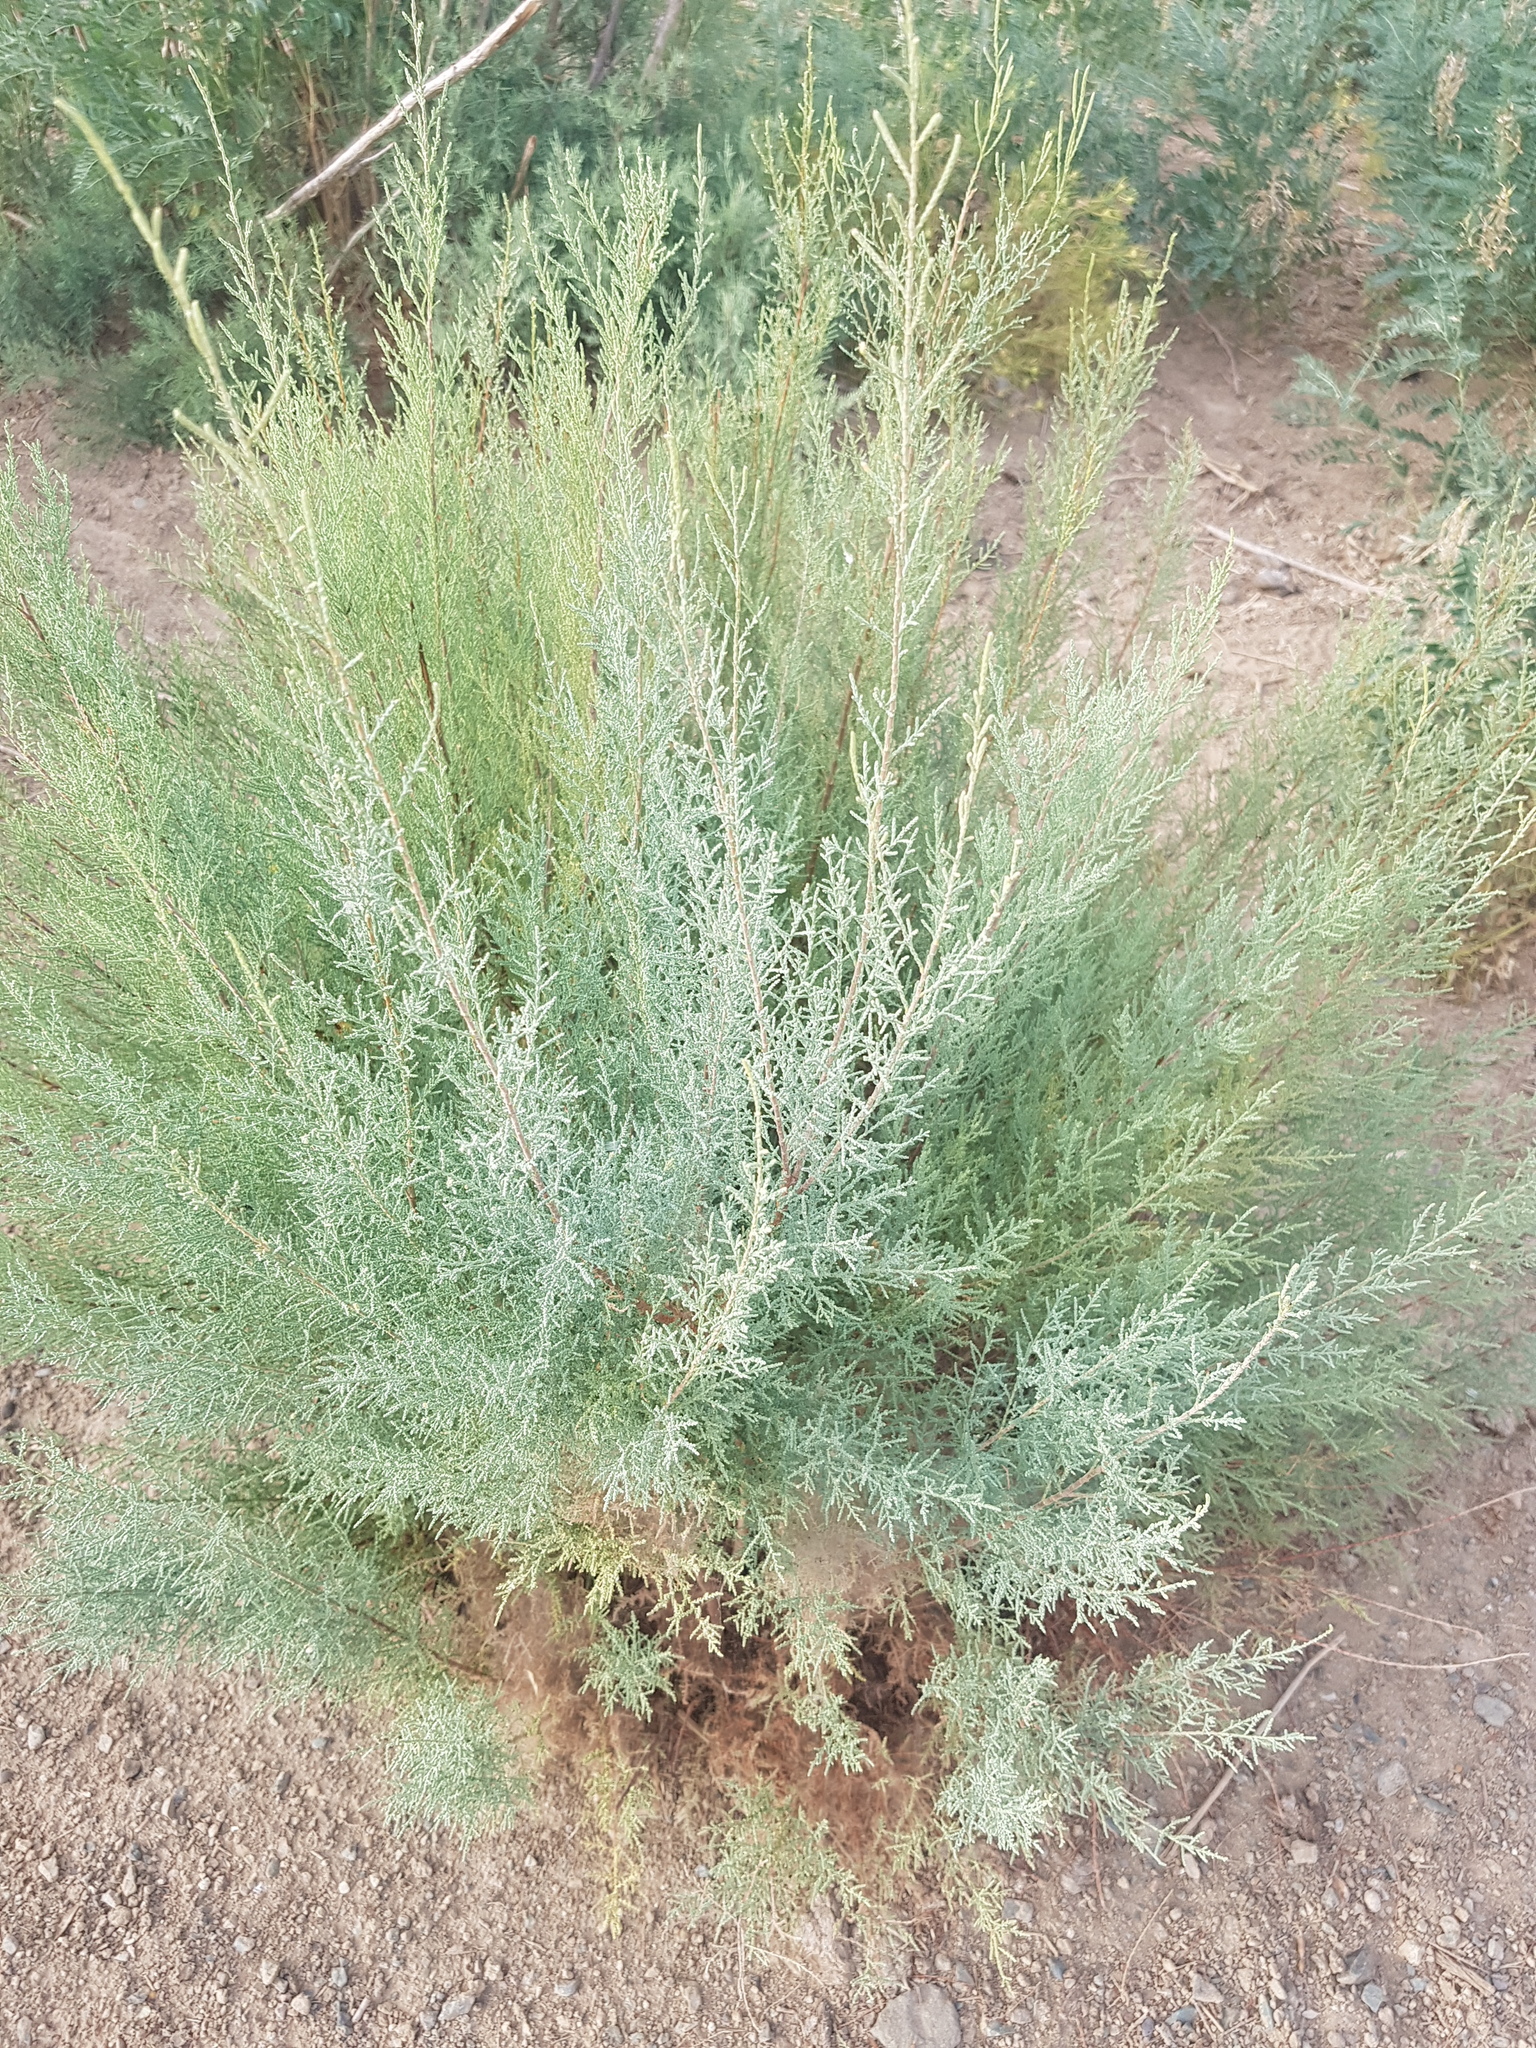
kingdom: Plantae
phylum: Tracheophyta
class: Magnoliopsida
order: Caryophyllales
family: Tamaricaceae
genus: Tamarix
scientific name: Tamarix ramosissima
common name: Pink tamarisk
